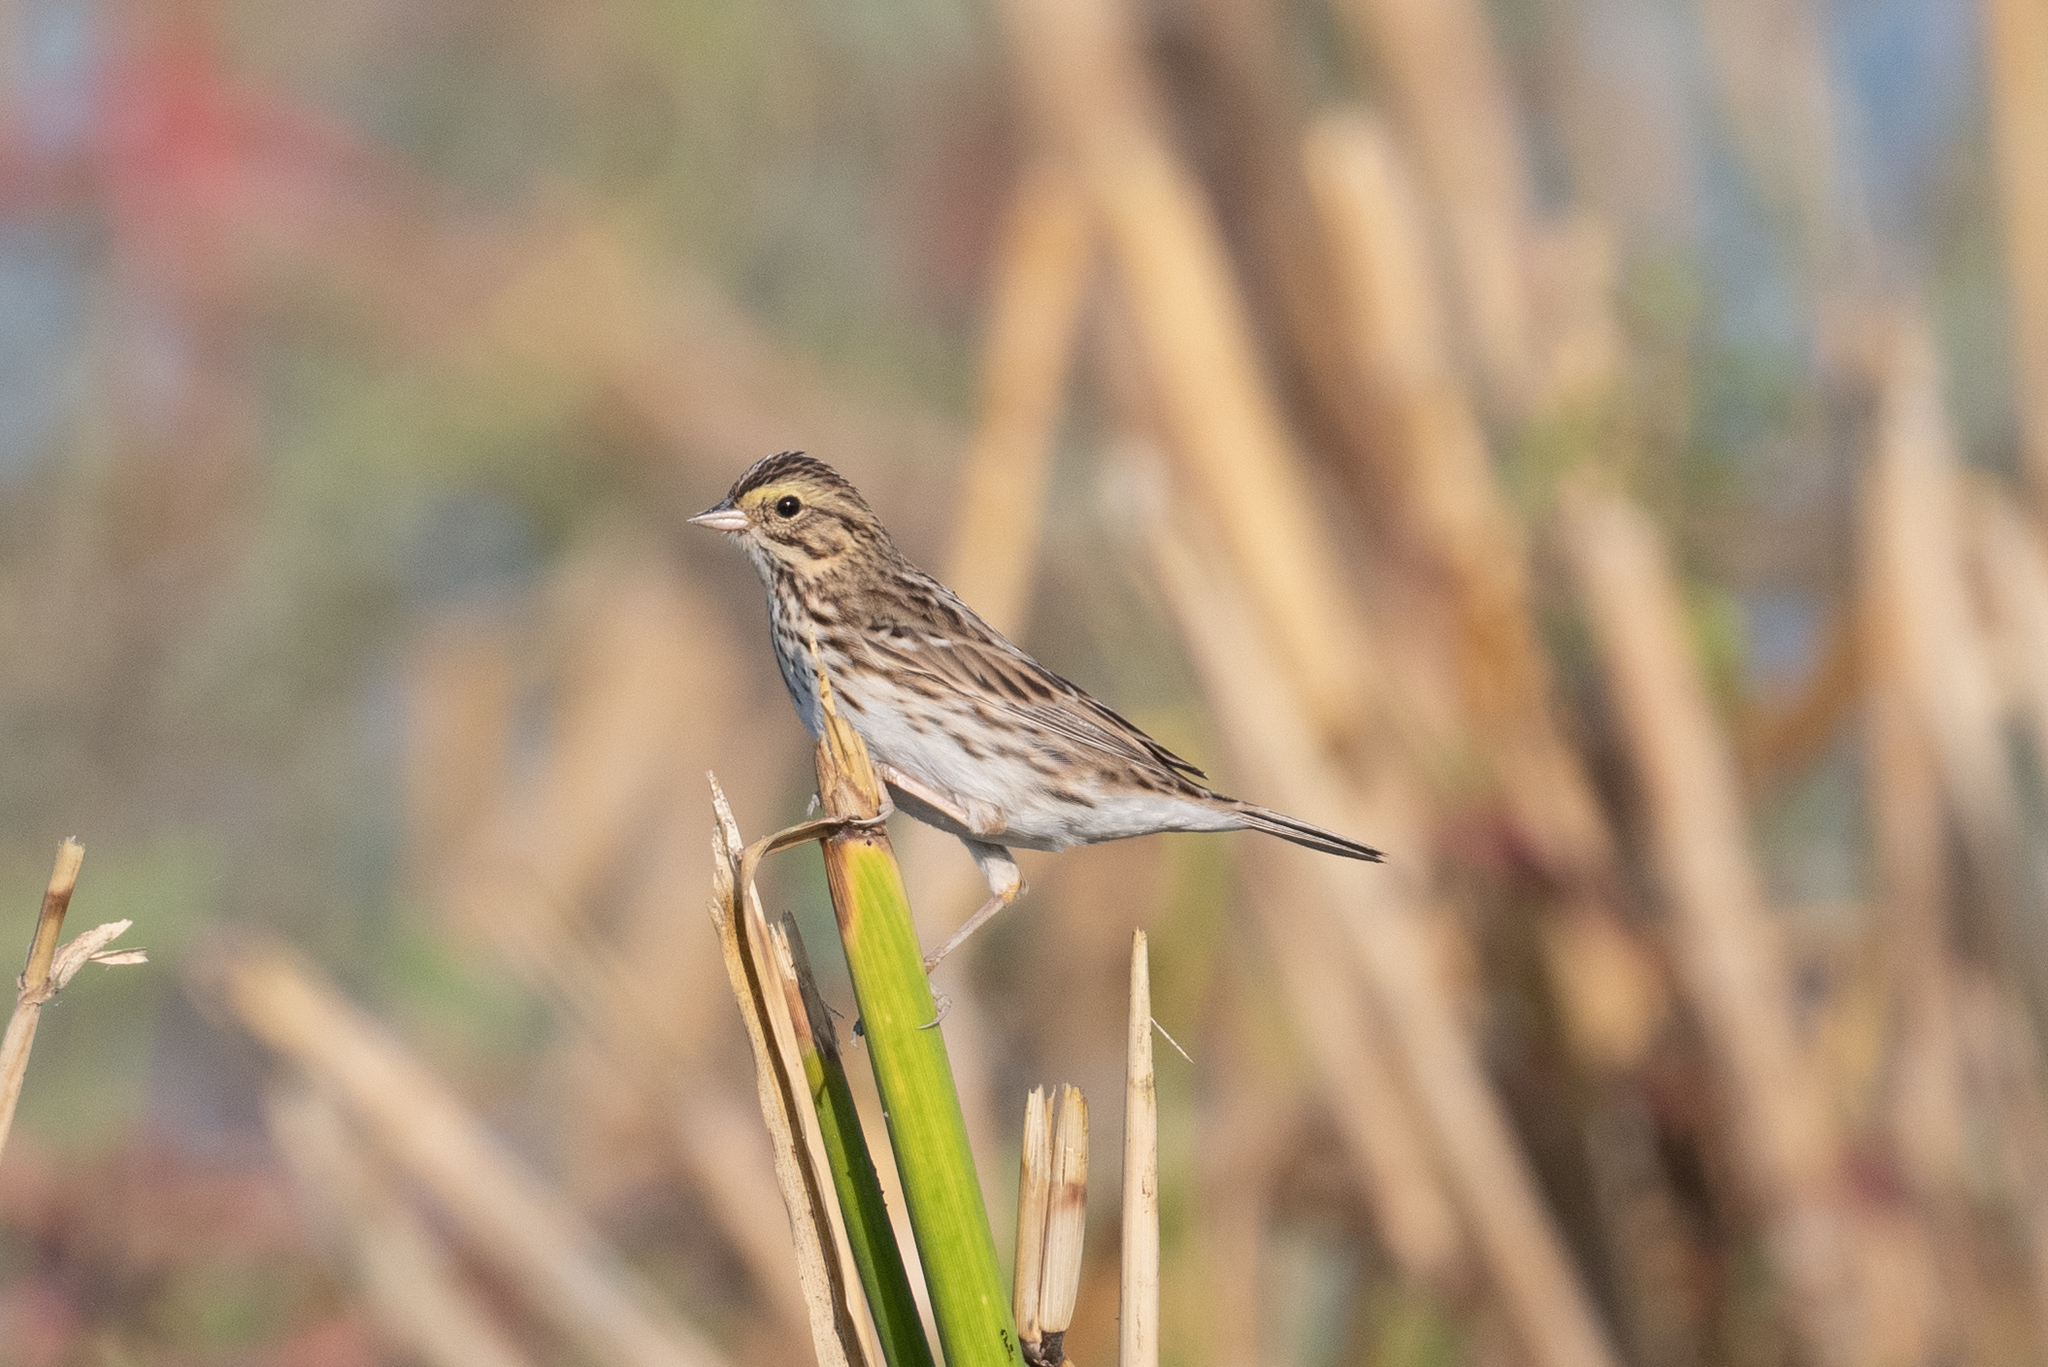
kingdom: Animalia
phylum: Chordata
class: Aves
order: Passeriformes
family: Passerellidae
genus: Passerculus
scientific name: Passerculus sandwichensis
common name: Savannah sparrow
